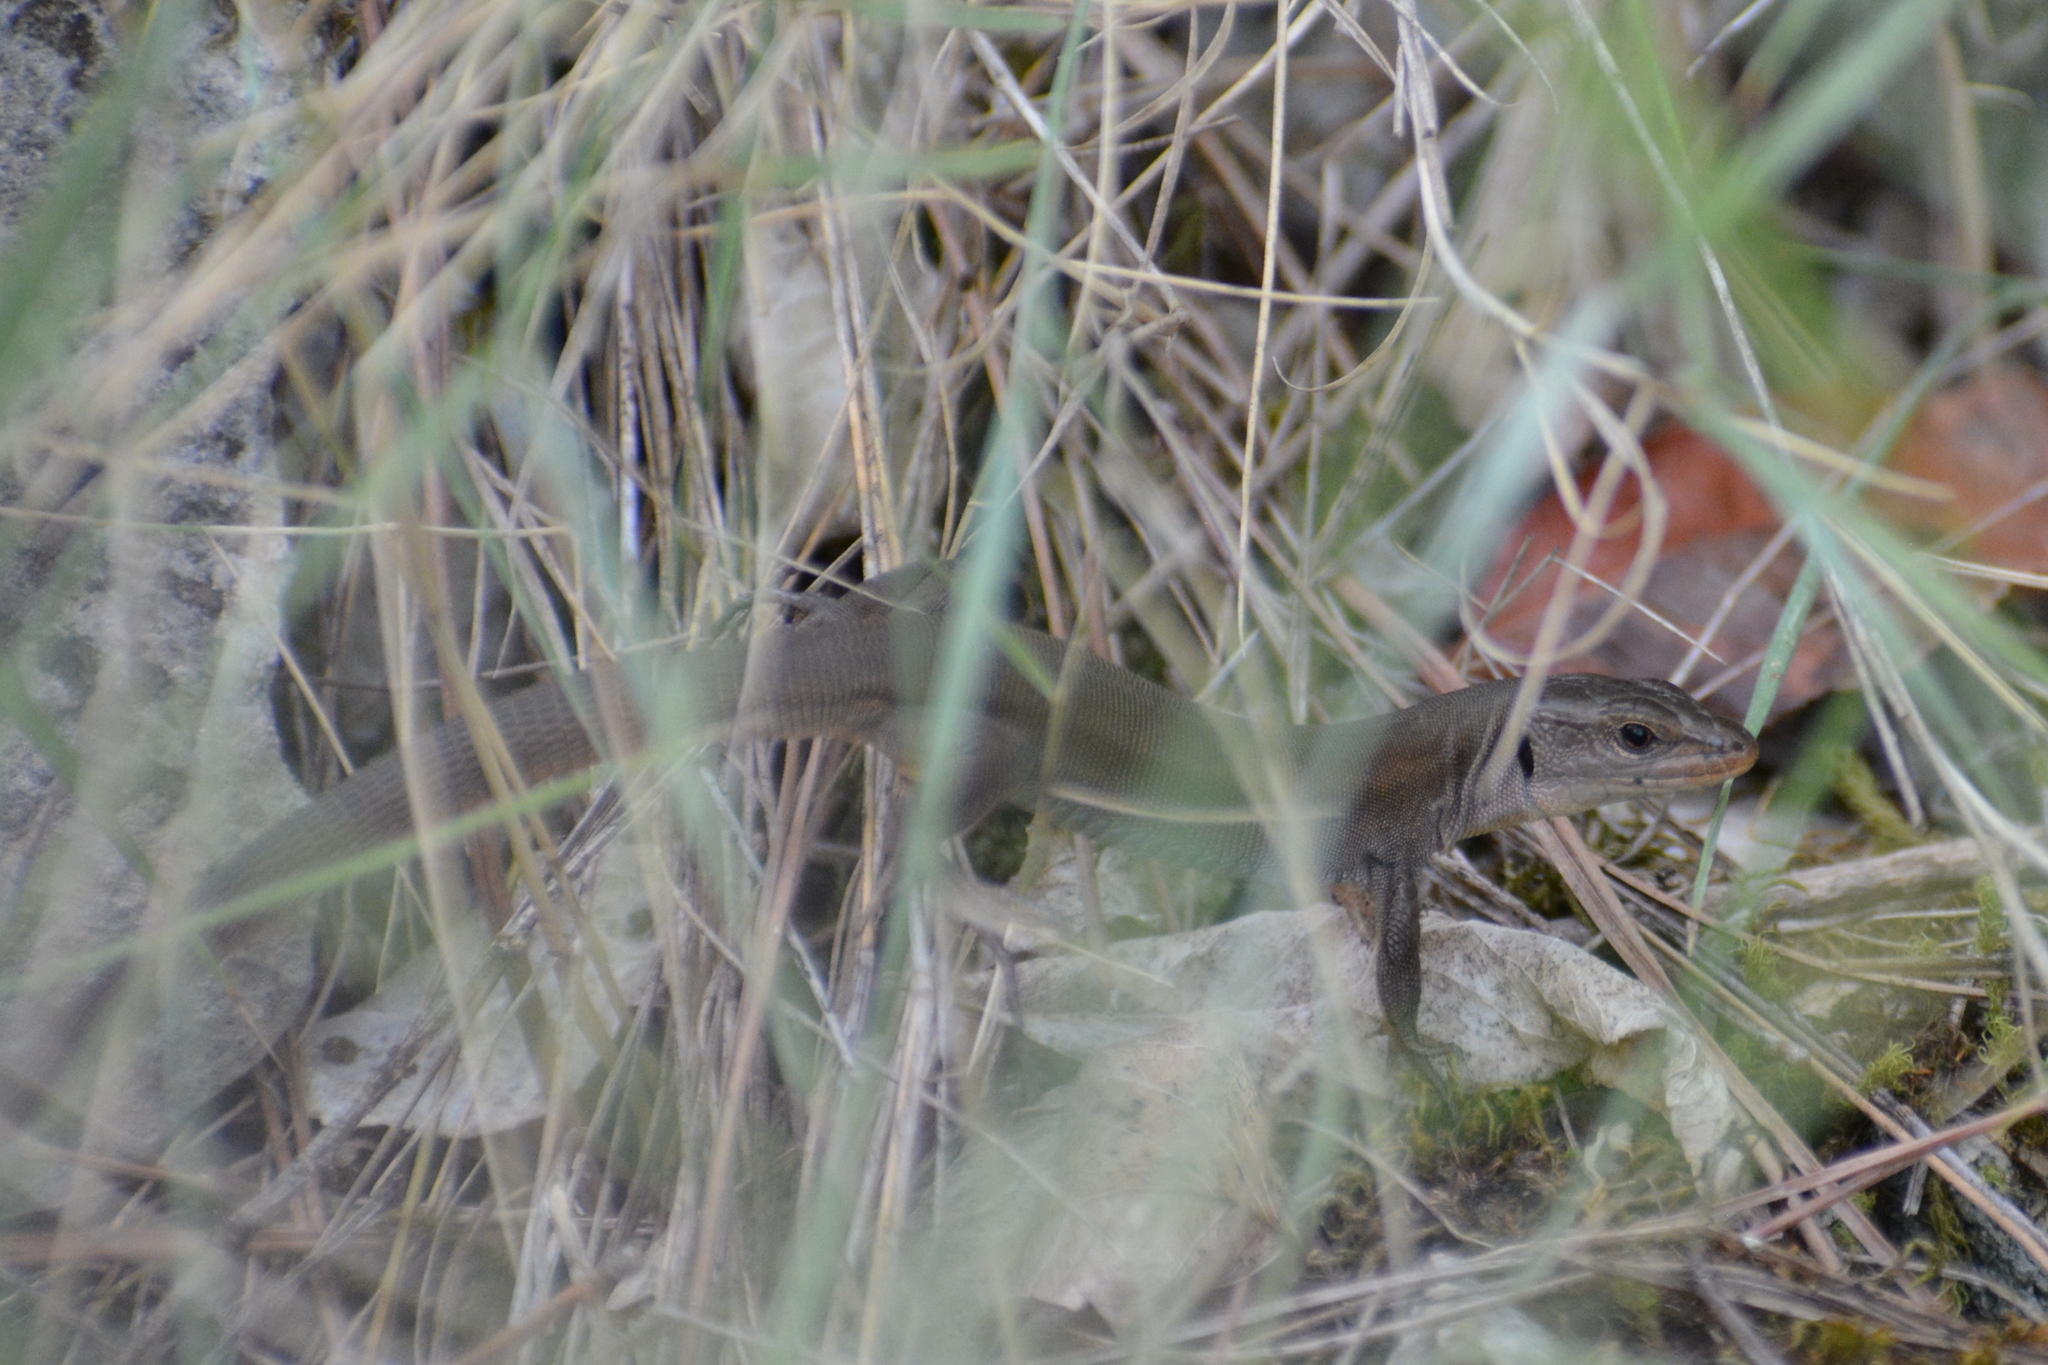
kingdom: Animalia
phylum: Chordata
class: Squamata
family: Lacertidae
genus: Podarcis
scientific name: Podarcis melisellensis
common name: Dalmatian wall lizard
